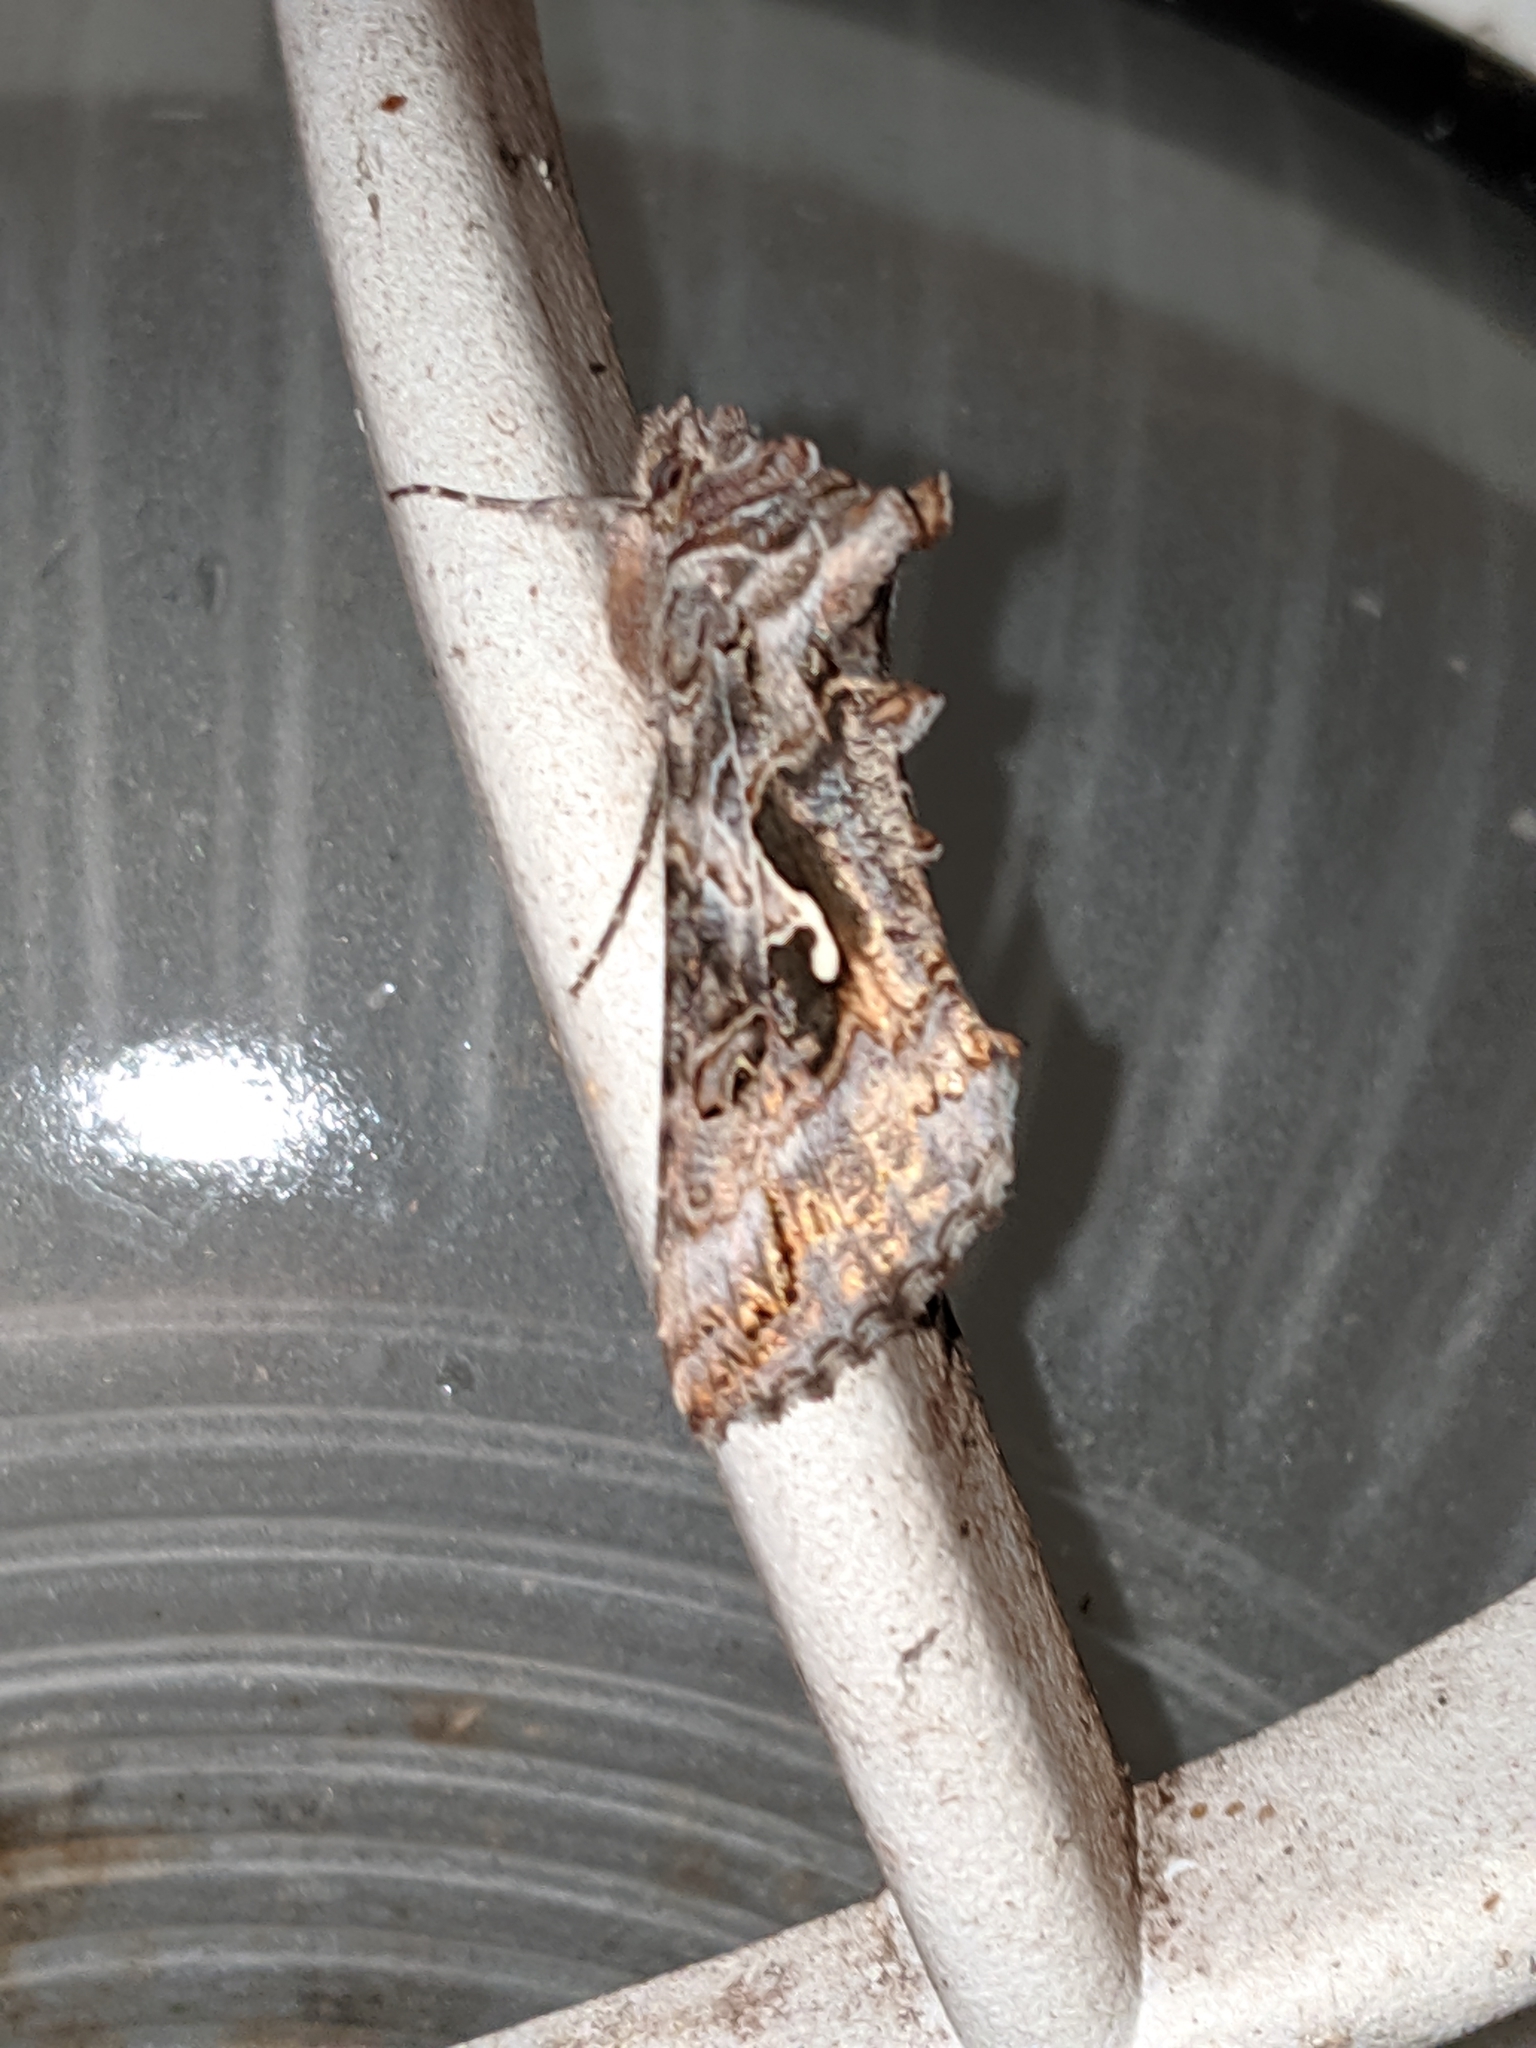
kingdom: Animalia
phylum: Arthropoda
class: Insecta
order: Lepidoptera
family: Noctuidae
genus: Autographa
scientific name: Autographa californica
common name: Alfalfa looper
